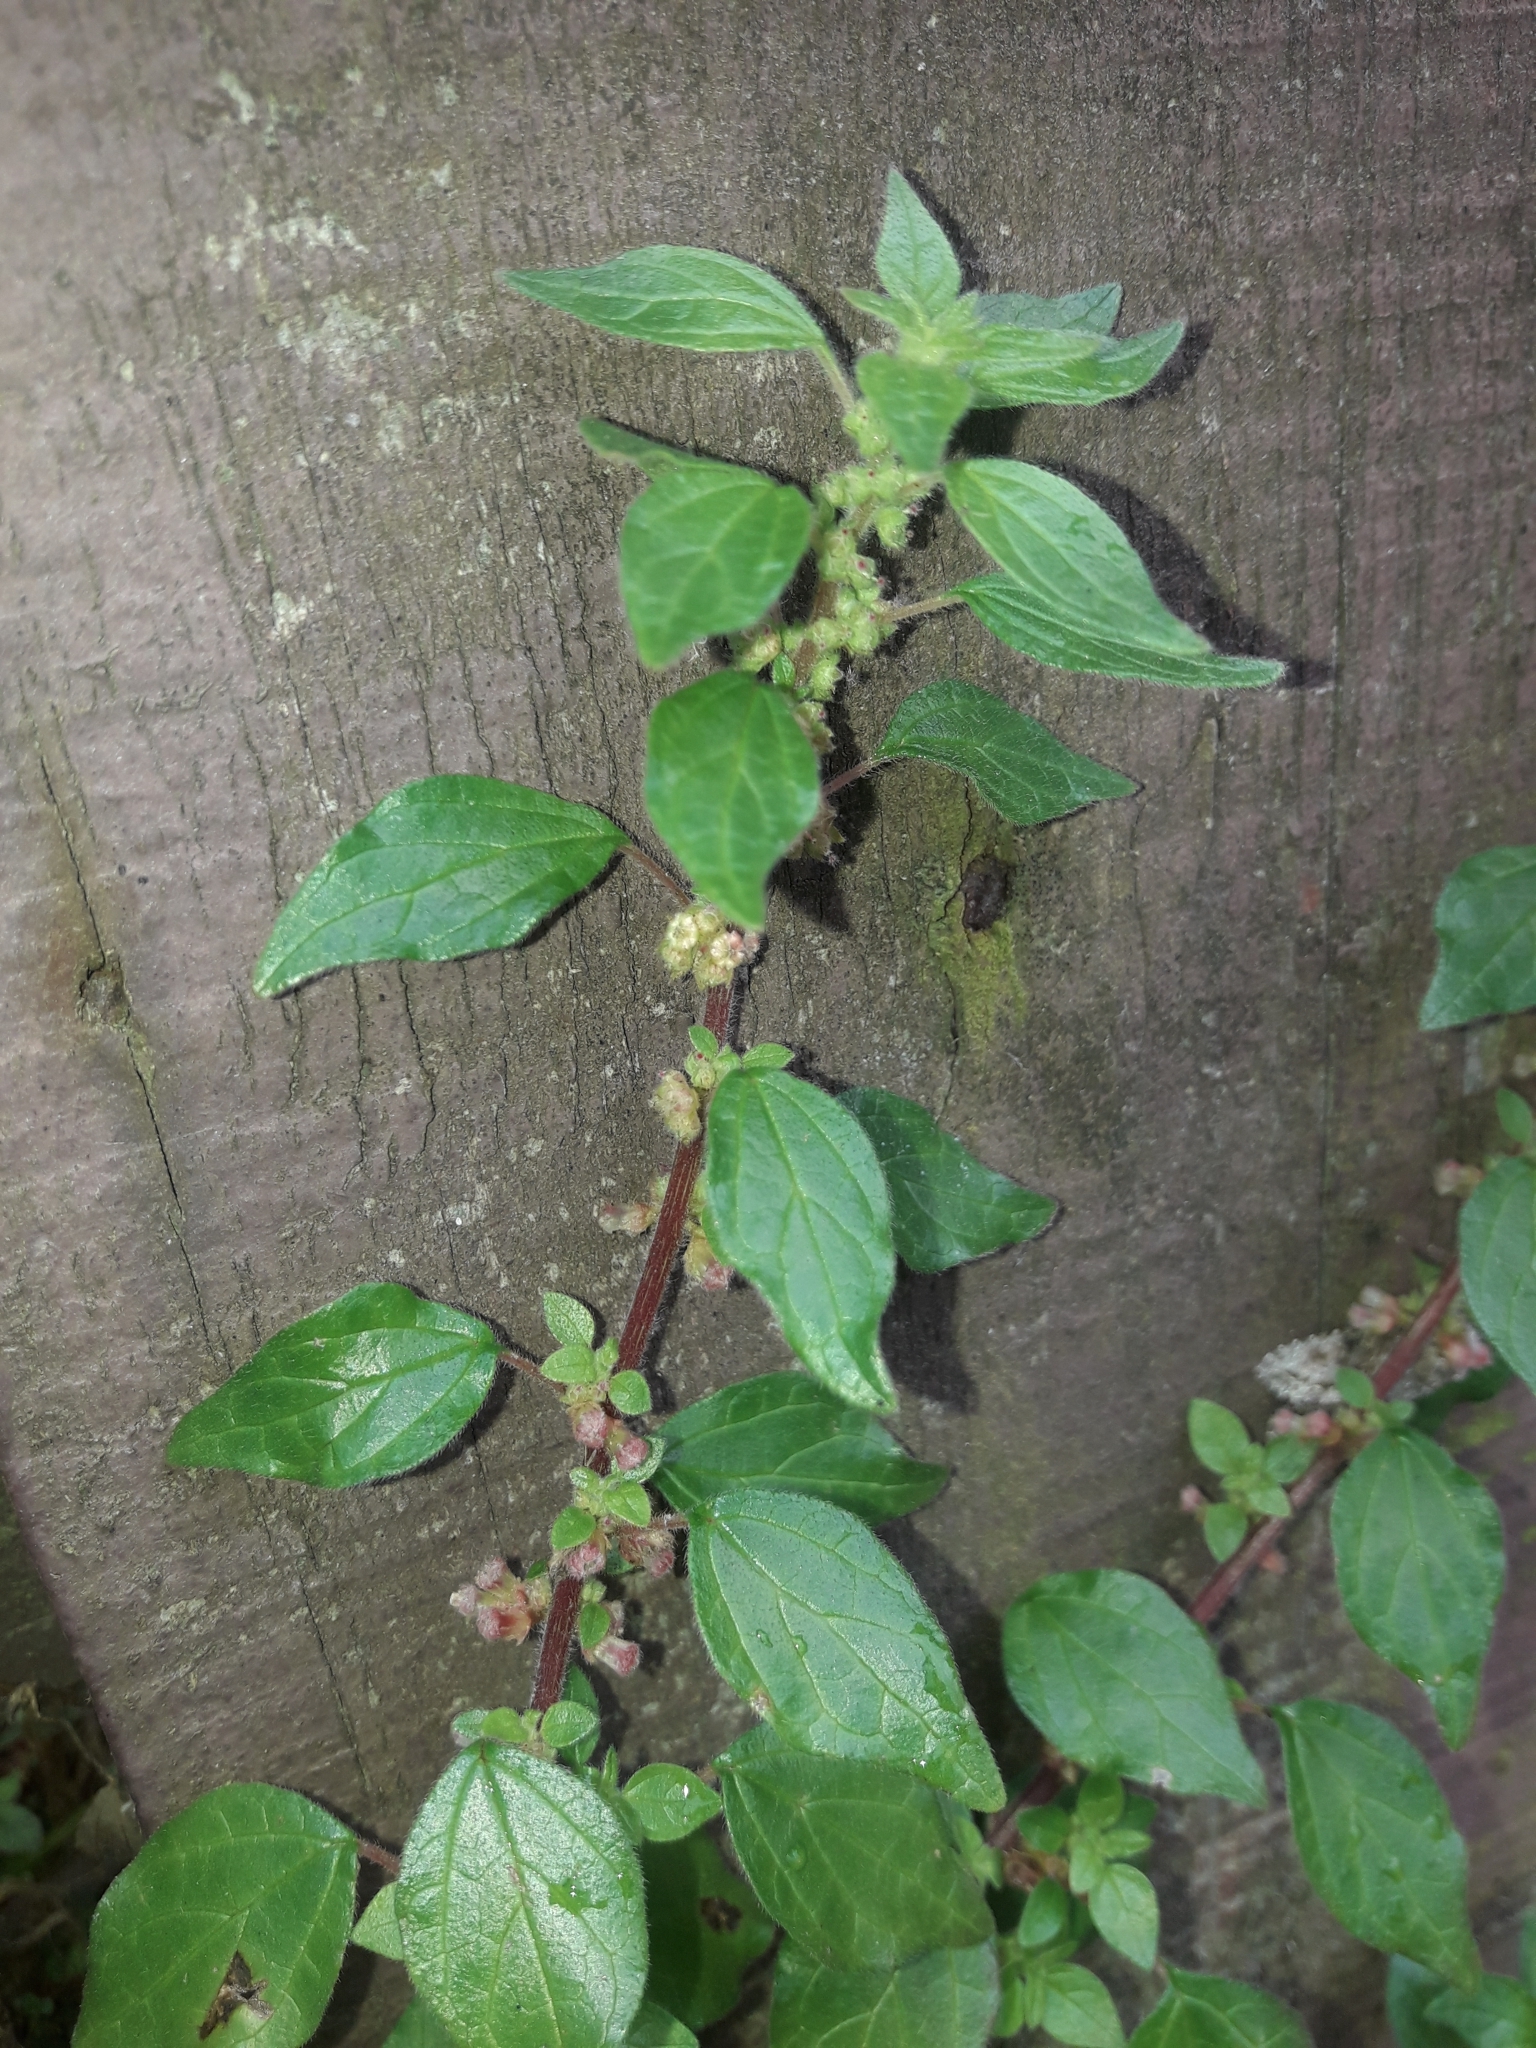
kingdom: Plantae
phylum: Tracheophyta
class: Magnoliopsida
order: Rosales
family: Urticaceae
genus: Parietaria
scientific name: Parietaria judaica
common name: Pellitory-of-the-wall
